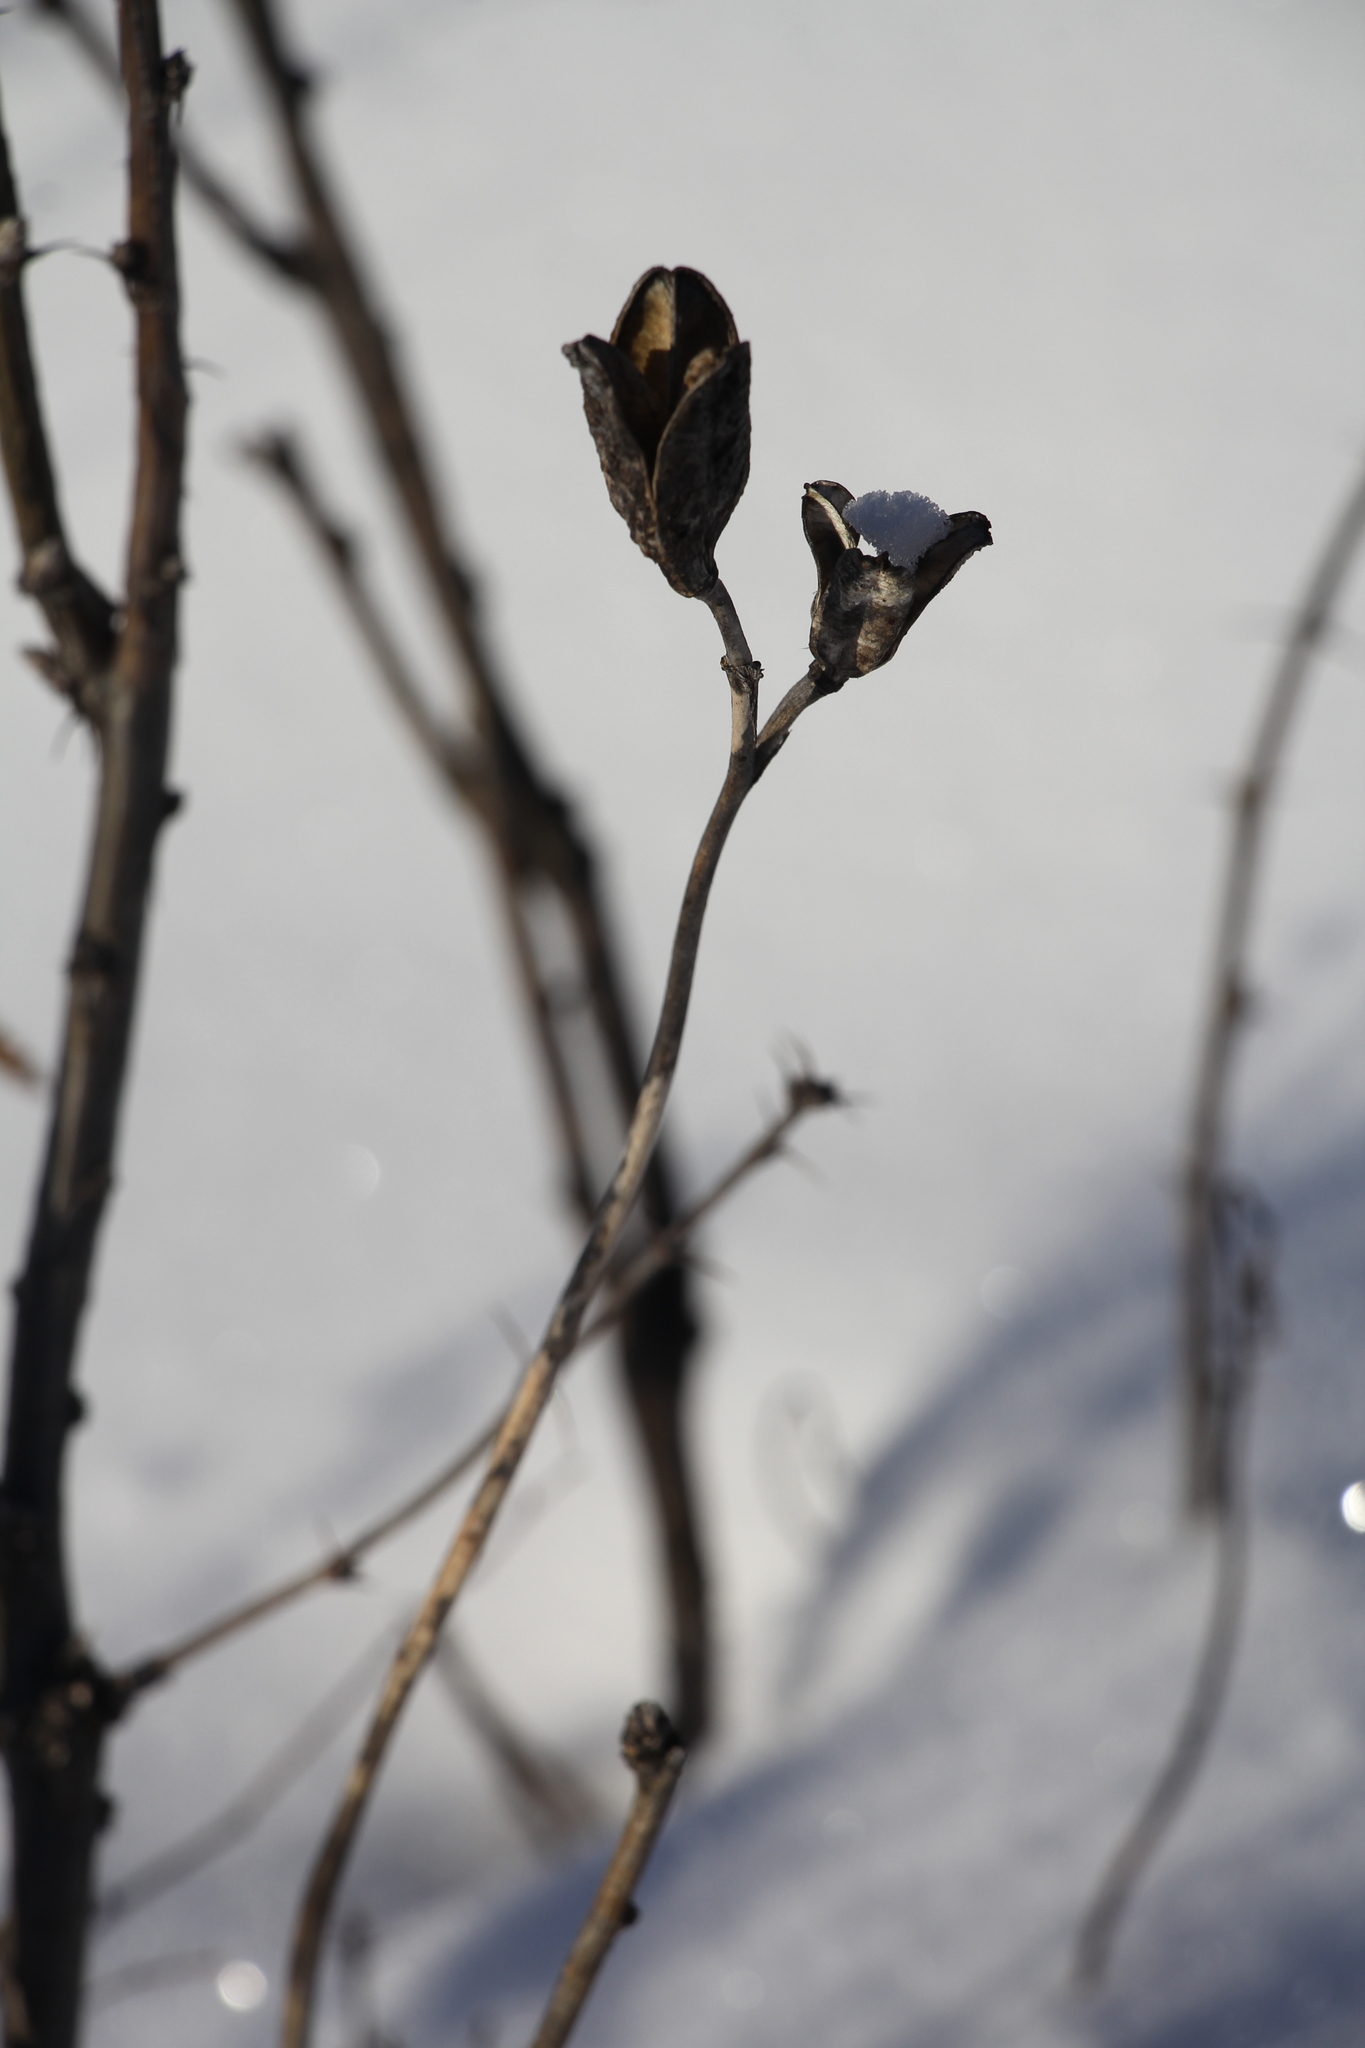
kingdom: Plantae
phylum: Tracheophyta
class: Liliopsida
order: Asparagales
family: Asphodelaceae
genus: Hemerocallis
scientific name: Hemerocallis minor
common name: Small daylily
